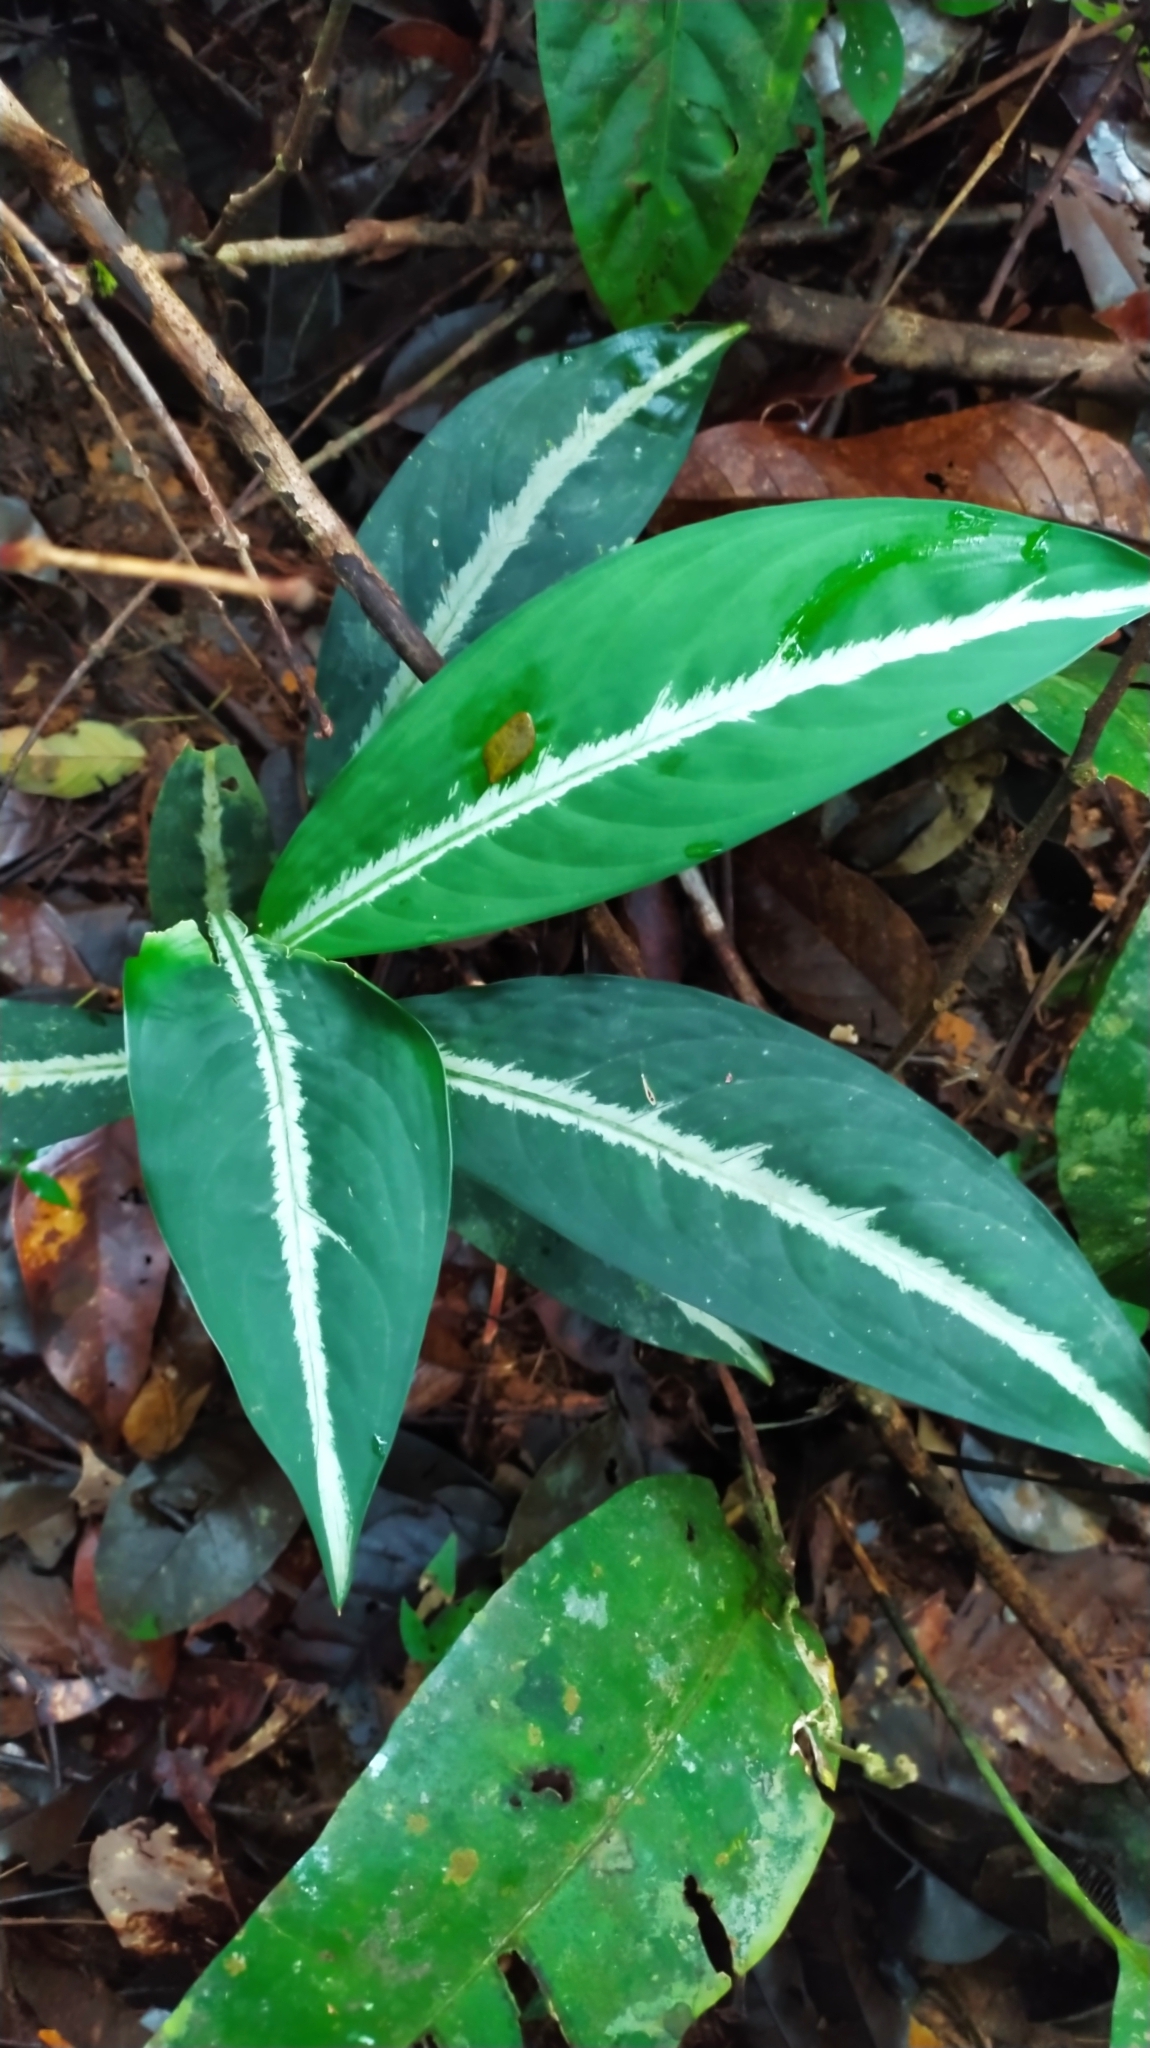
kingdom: Plantae
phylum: Tracheophyta
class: Liliopsida
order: Alismatales
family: Araceae
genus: Dieffenbachia
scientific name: Dieffenbachia
